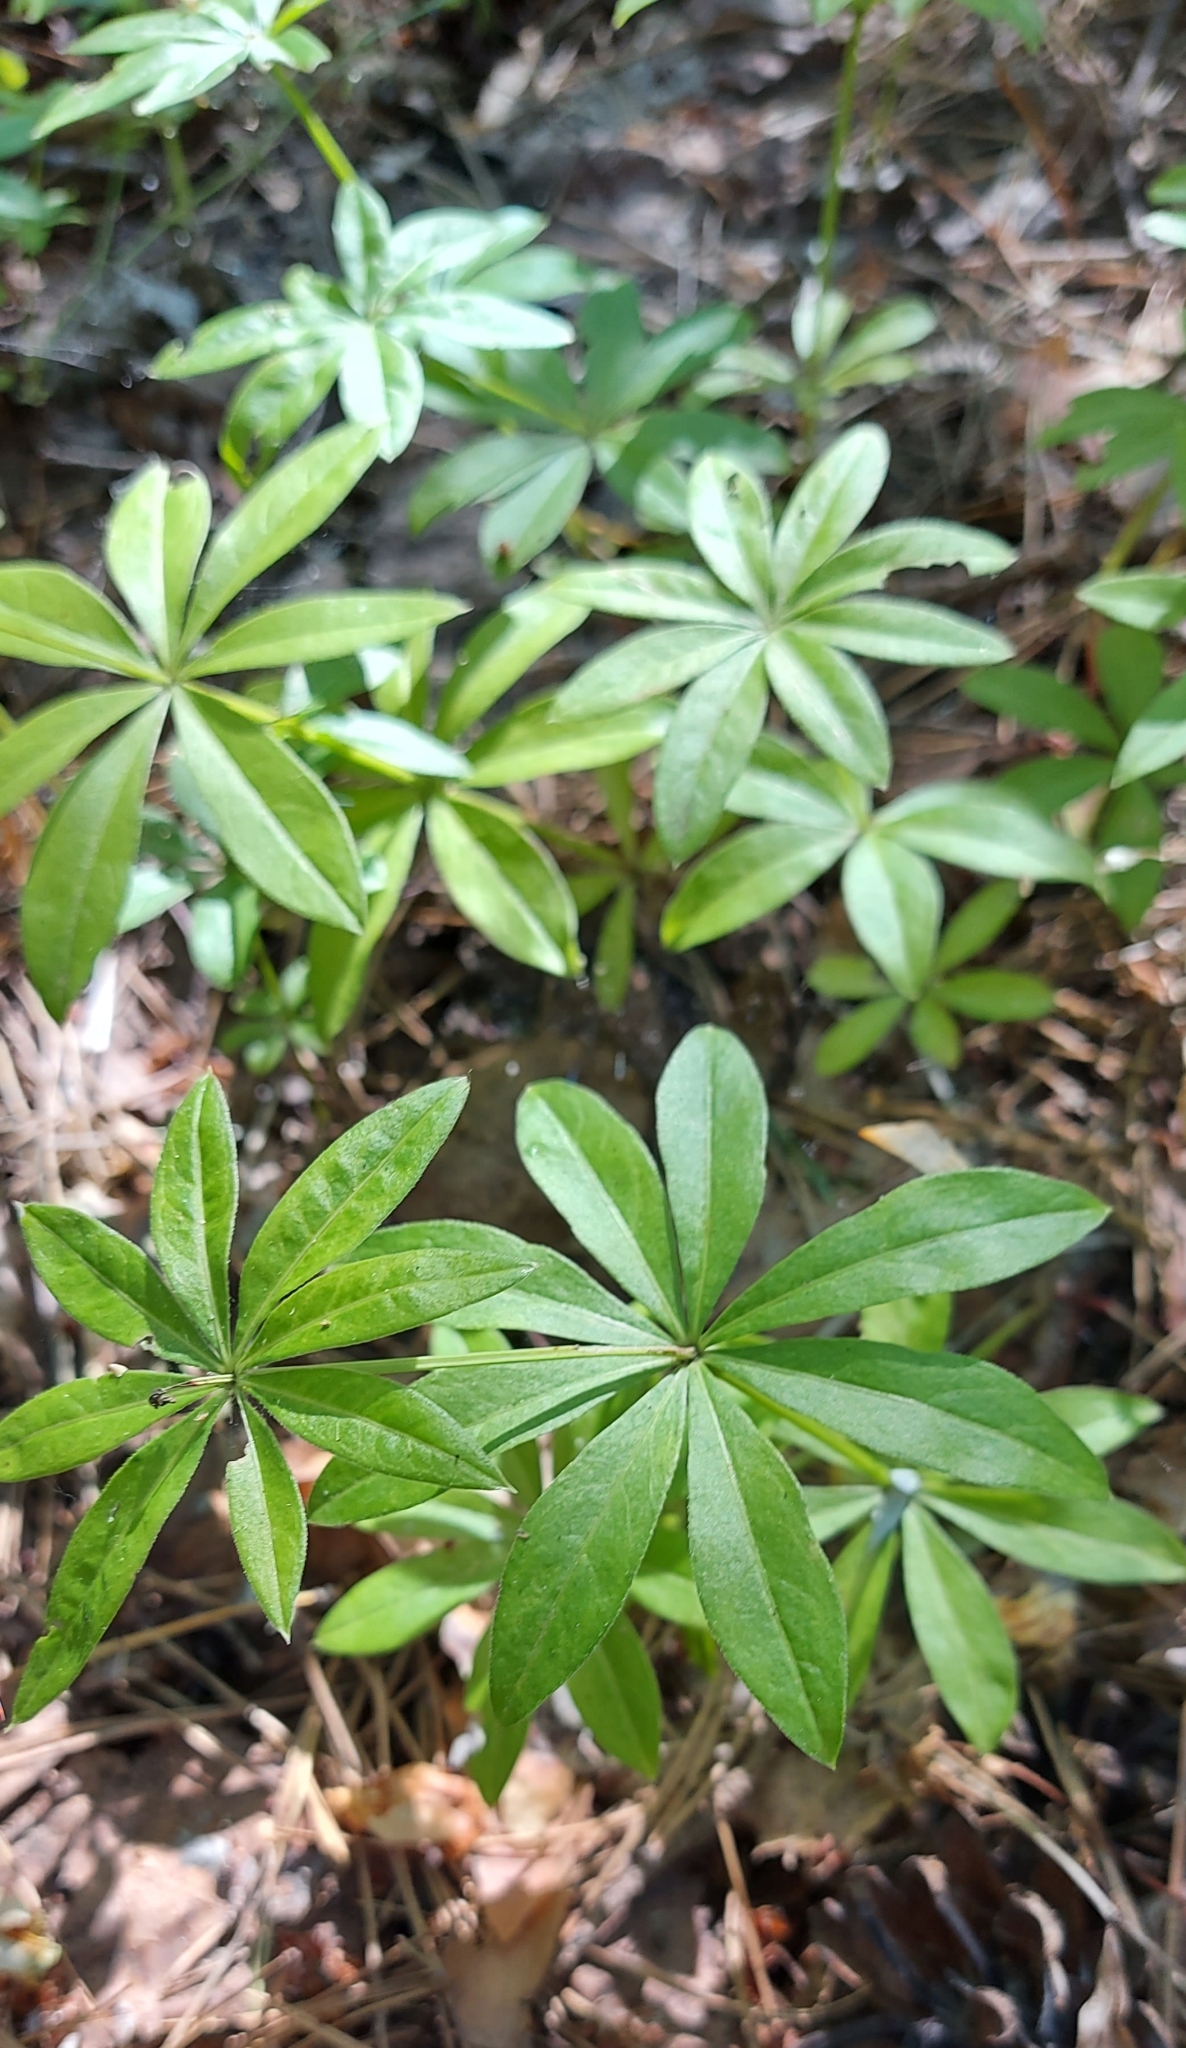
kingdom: Plantae
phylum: Tracheophyta
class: Magnoliopsida
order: Gentianales
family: Rubiaceae
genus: Galium
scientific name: Galium odoratum
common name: Sweet woodruff
